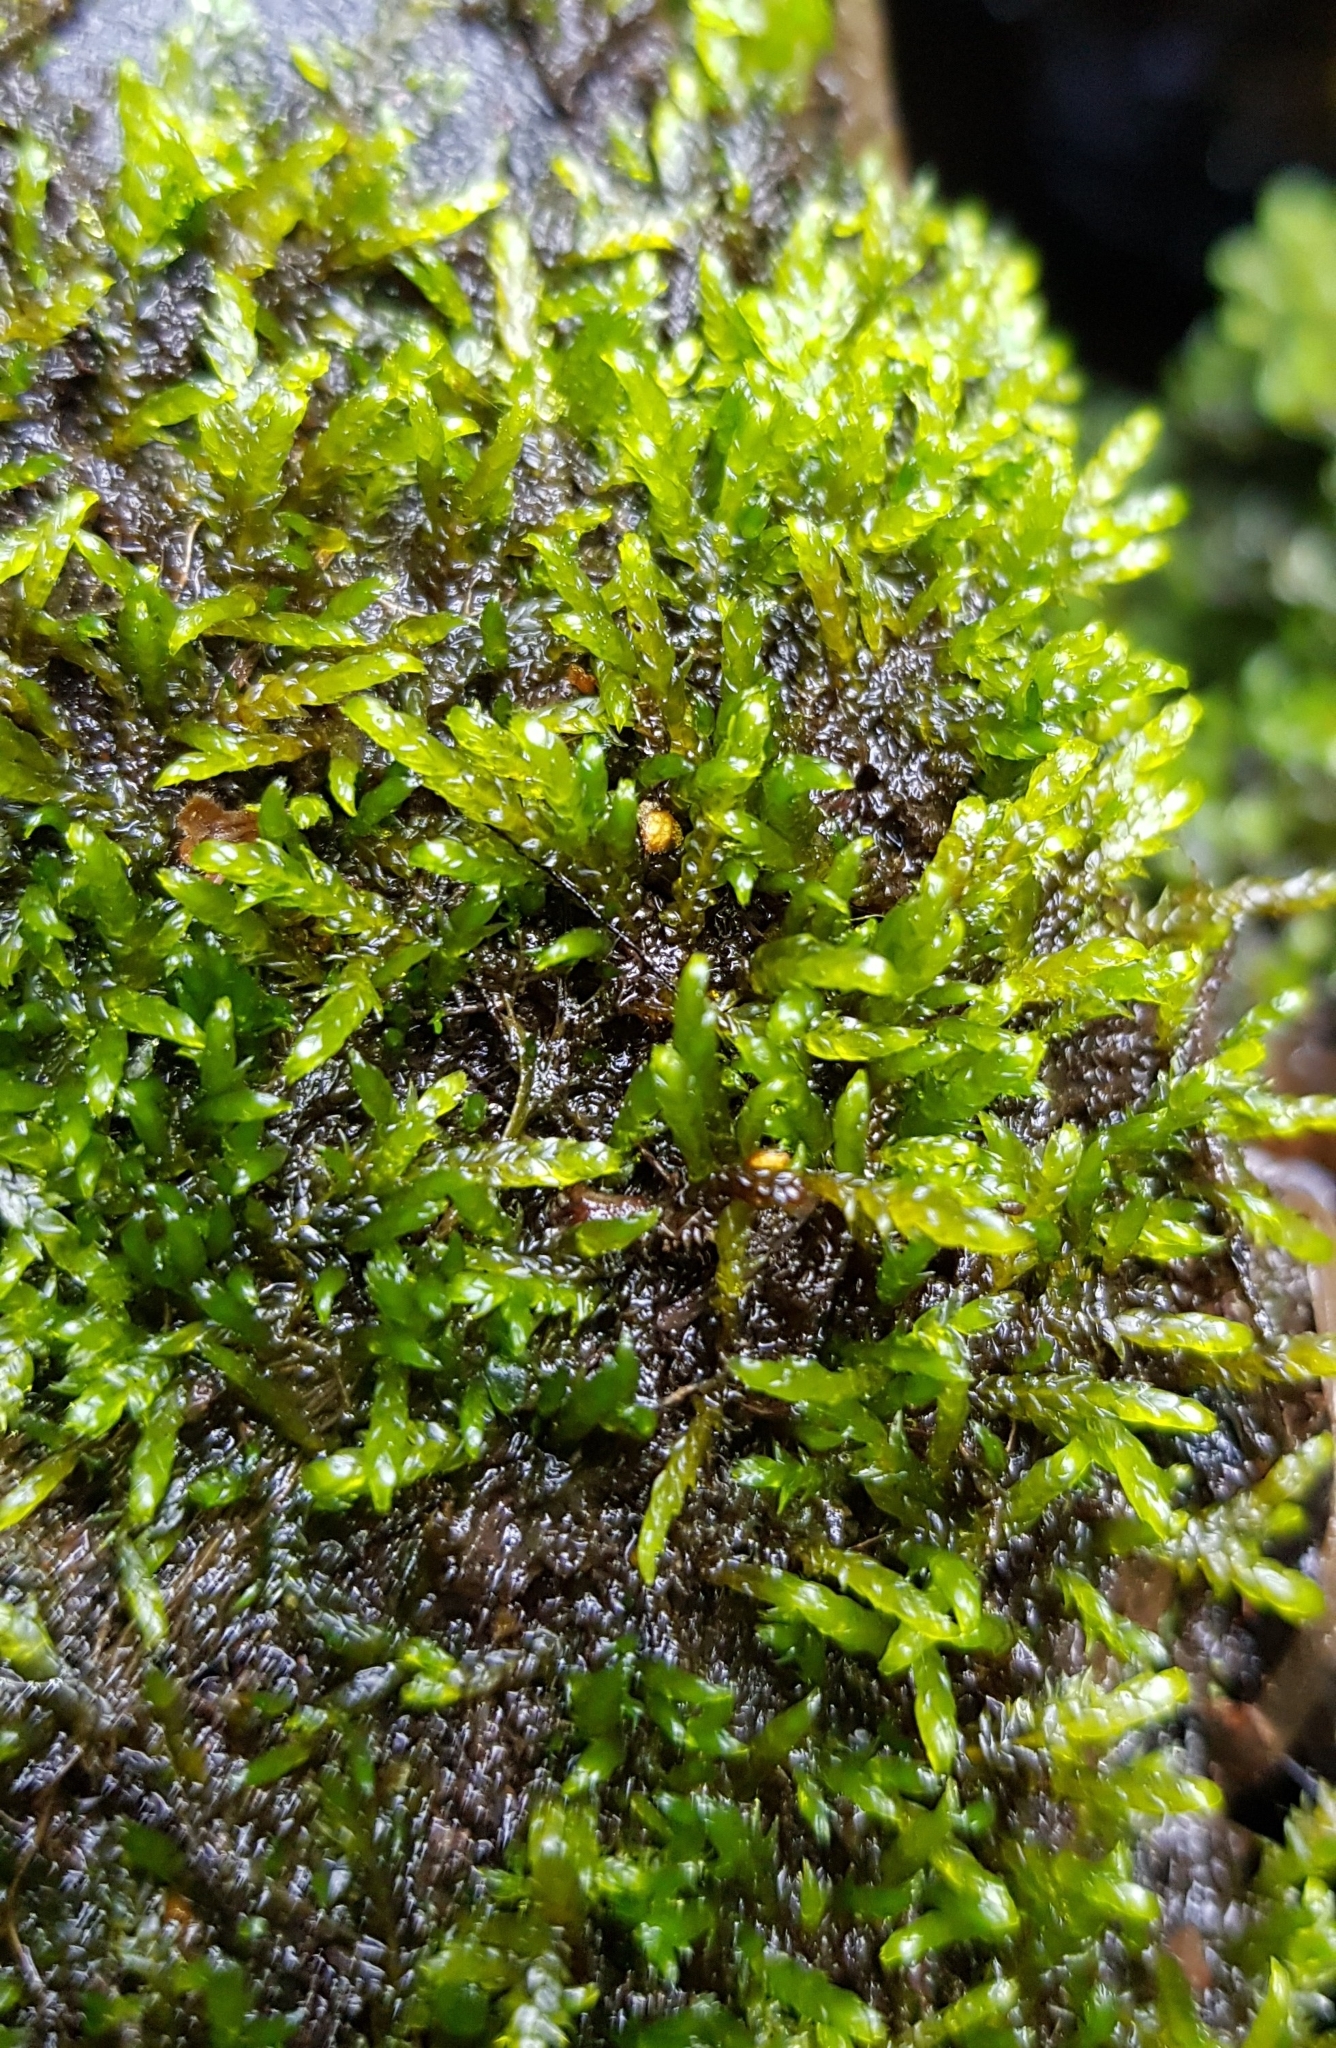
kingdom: Plantae
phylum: Bryophyta
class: Bryopsida
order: Hypnales
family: Scorpidiaceae
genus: Hygrohypnella
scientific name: Hygrohypnella ochracea
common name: Hygrohypnum moss
